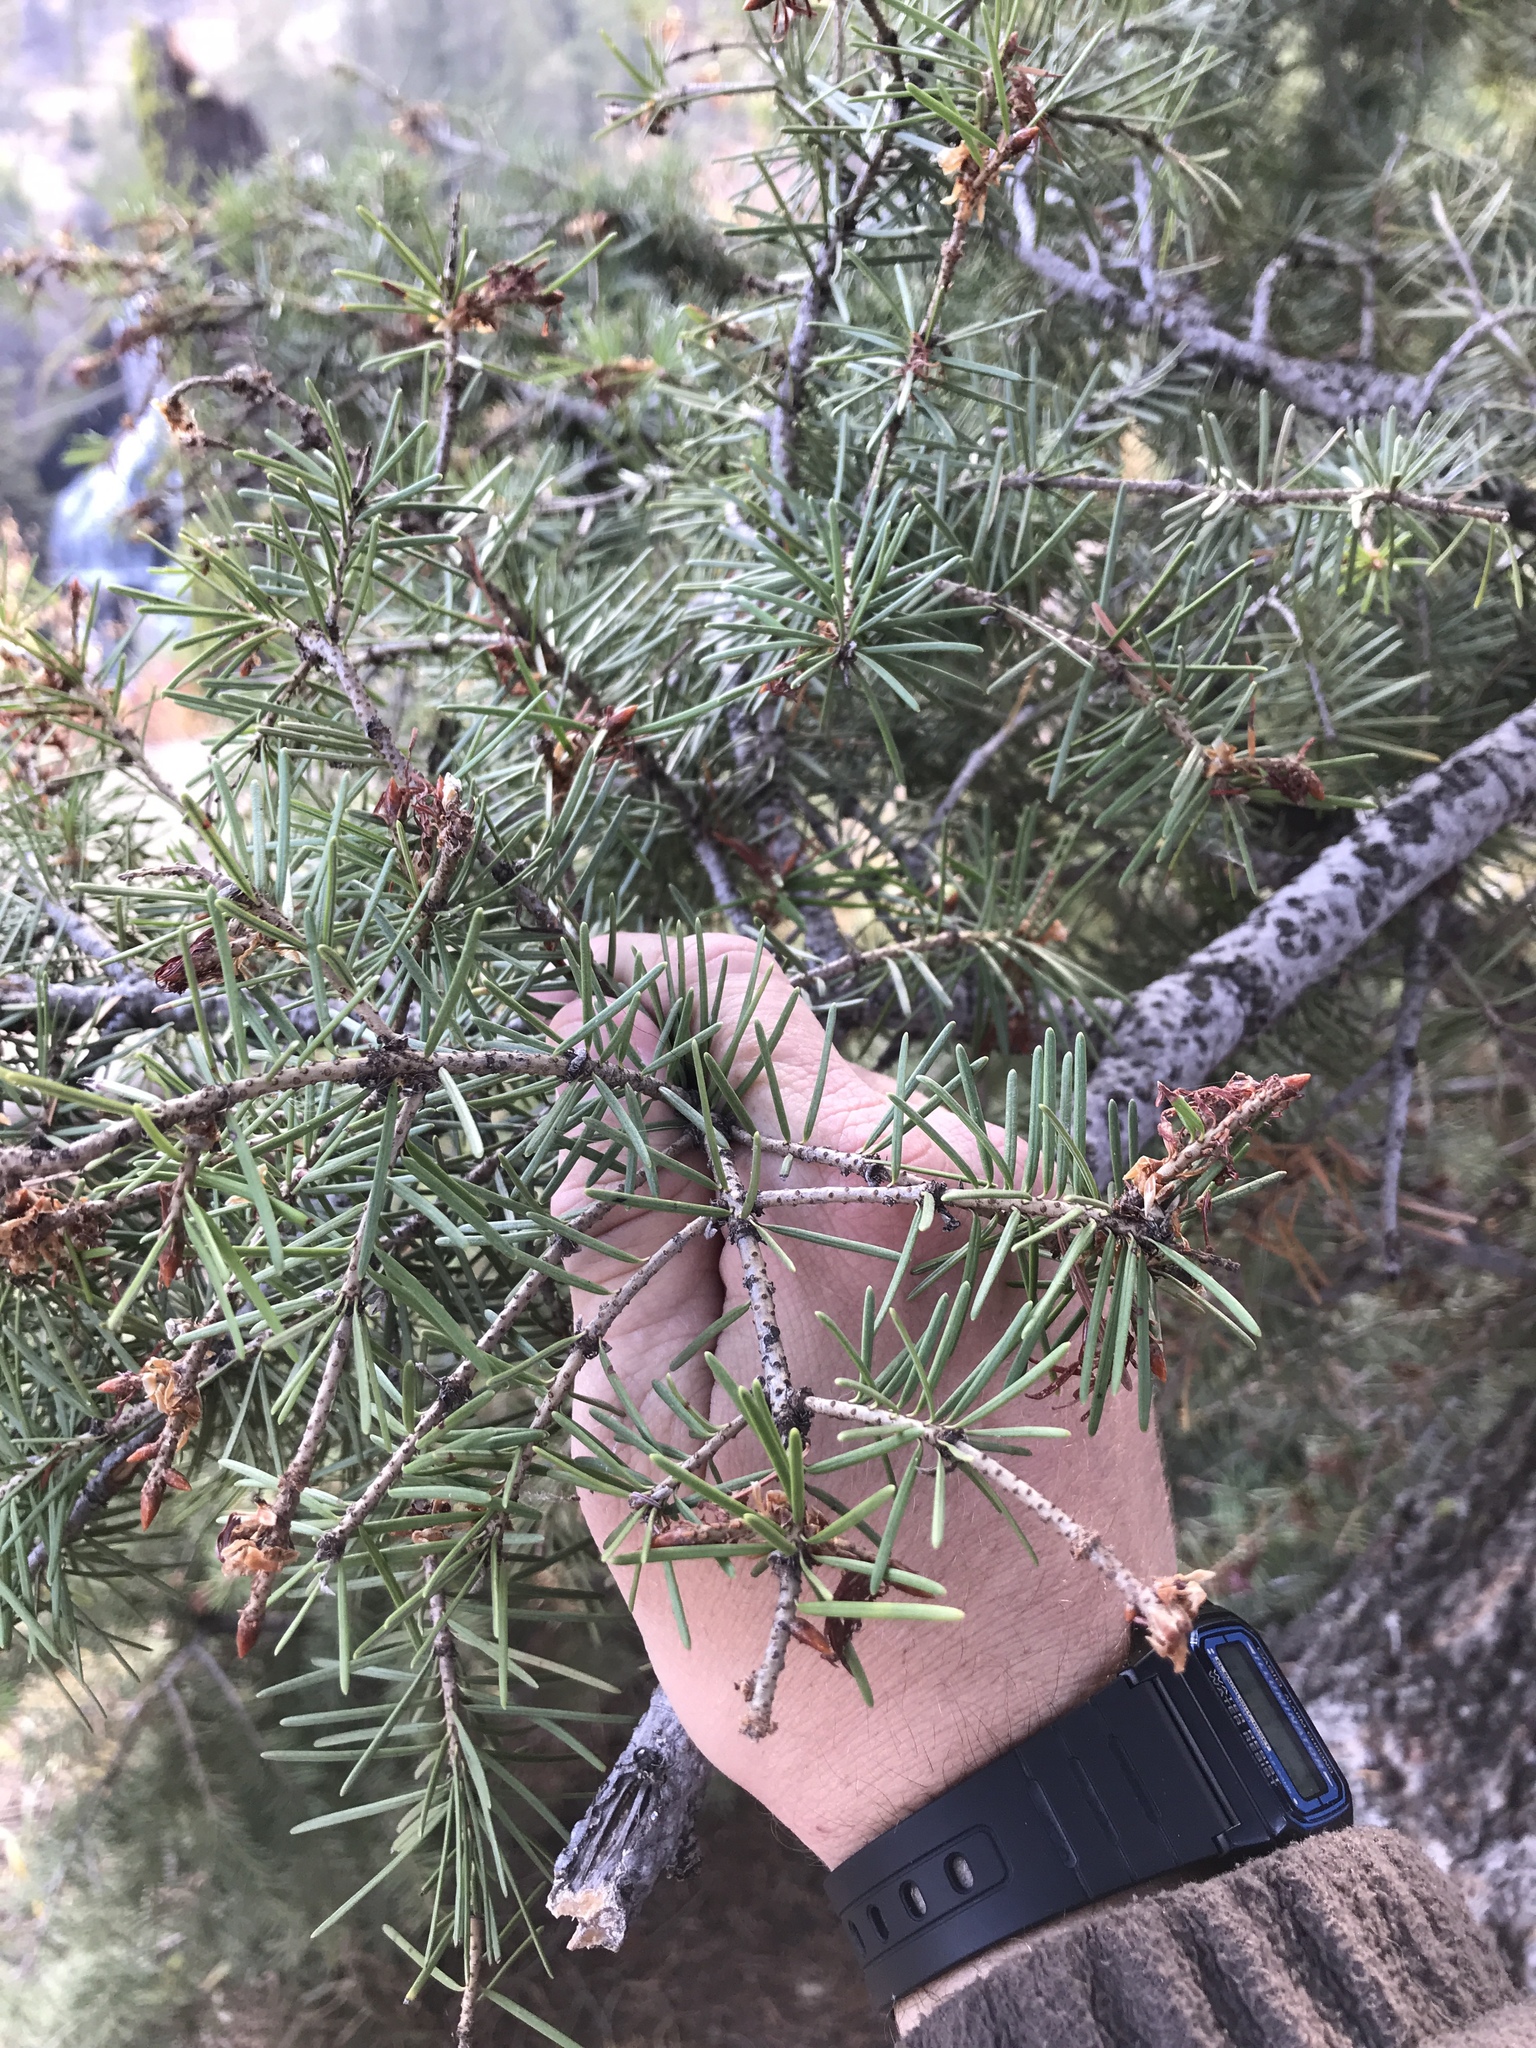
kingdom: Plantae
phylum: Tracheophyta
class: Pinopsida
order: Pinales
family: Pinaceae
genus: Pseudotsuga
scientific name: Pseudotsuga menziesii
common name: Douglas fir
